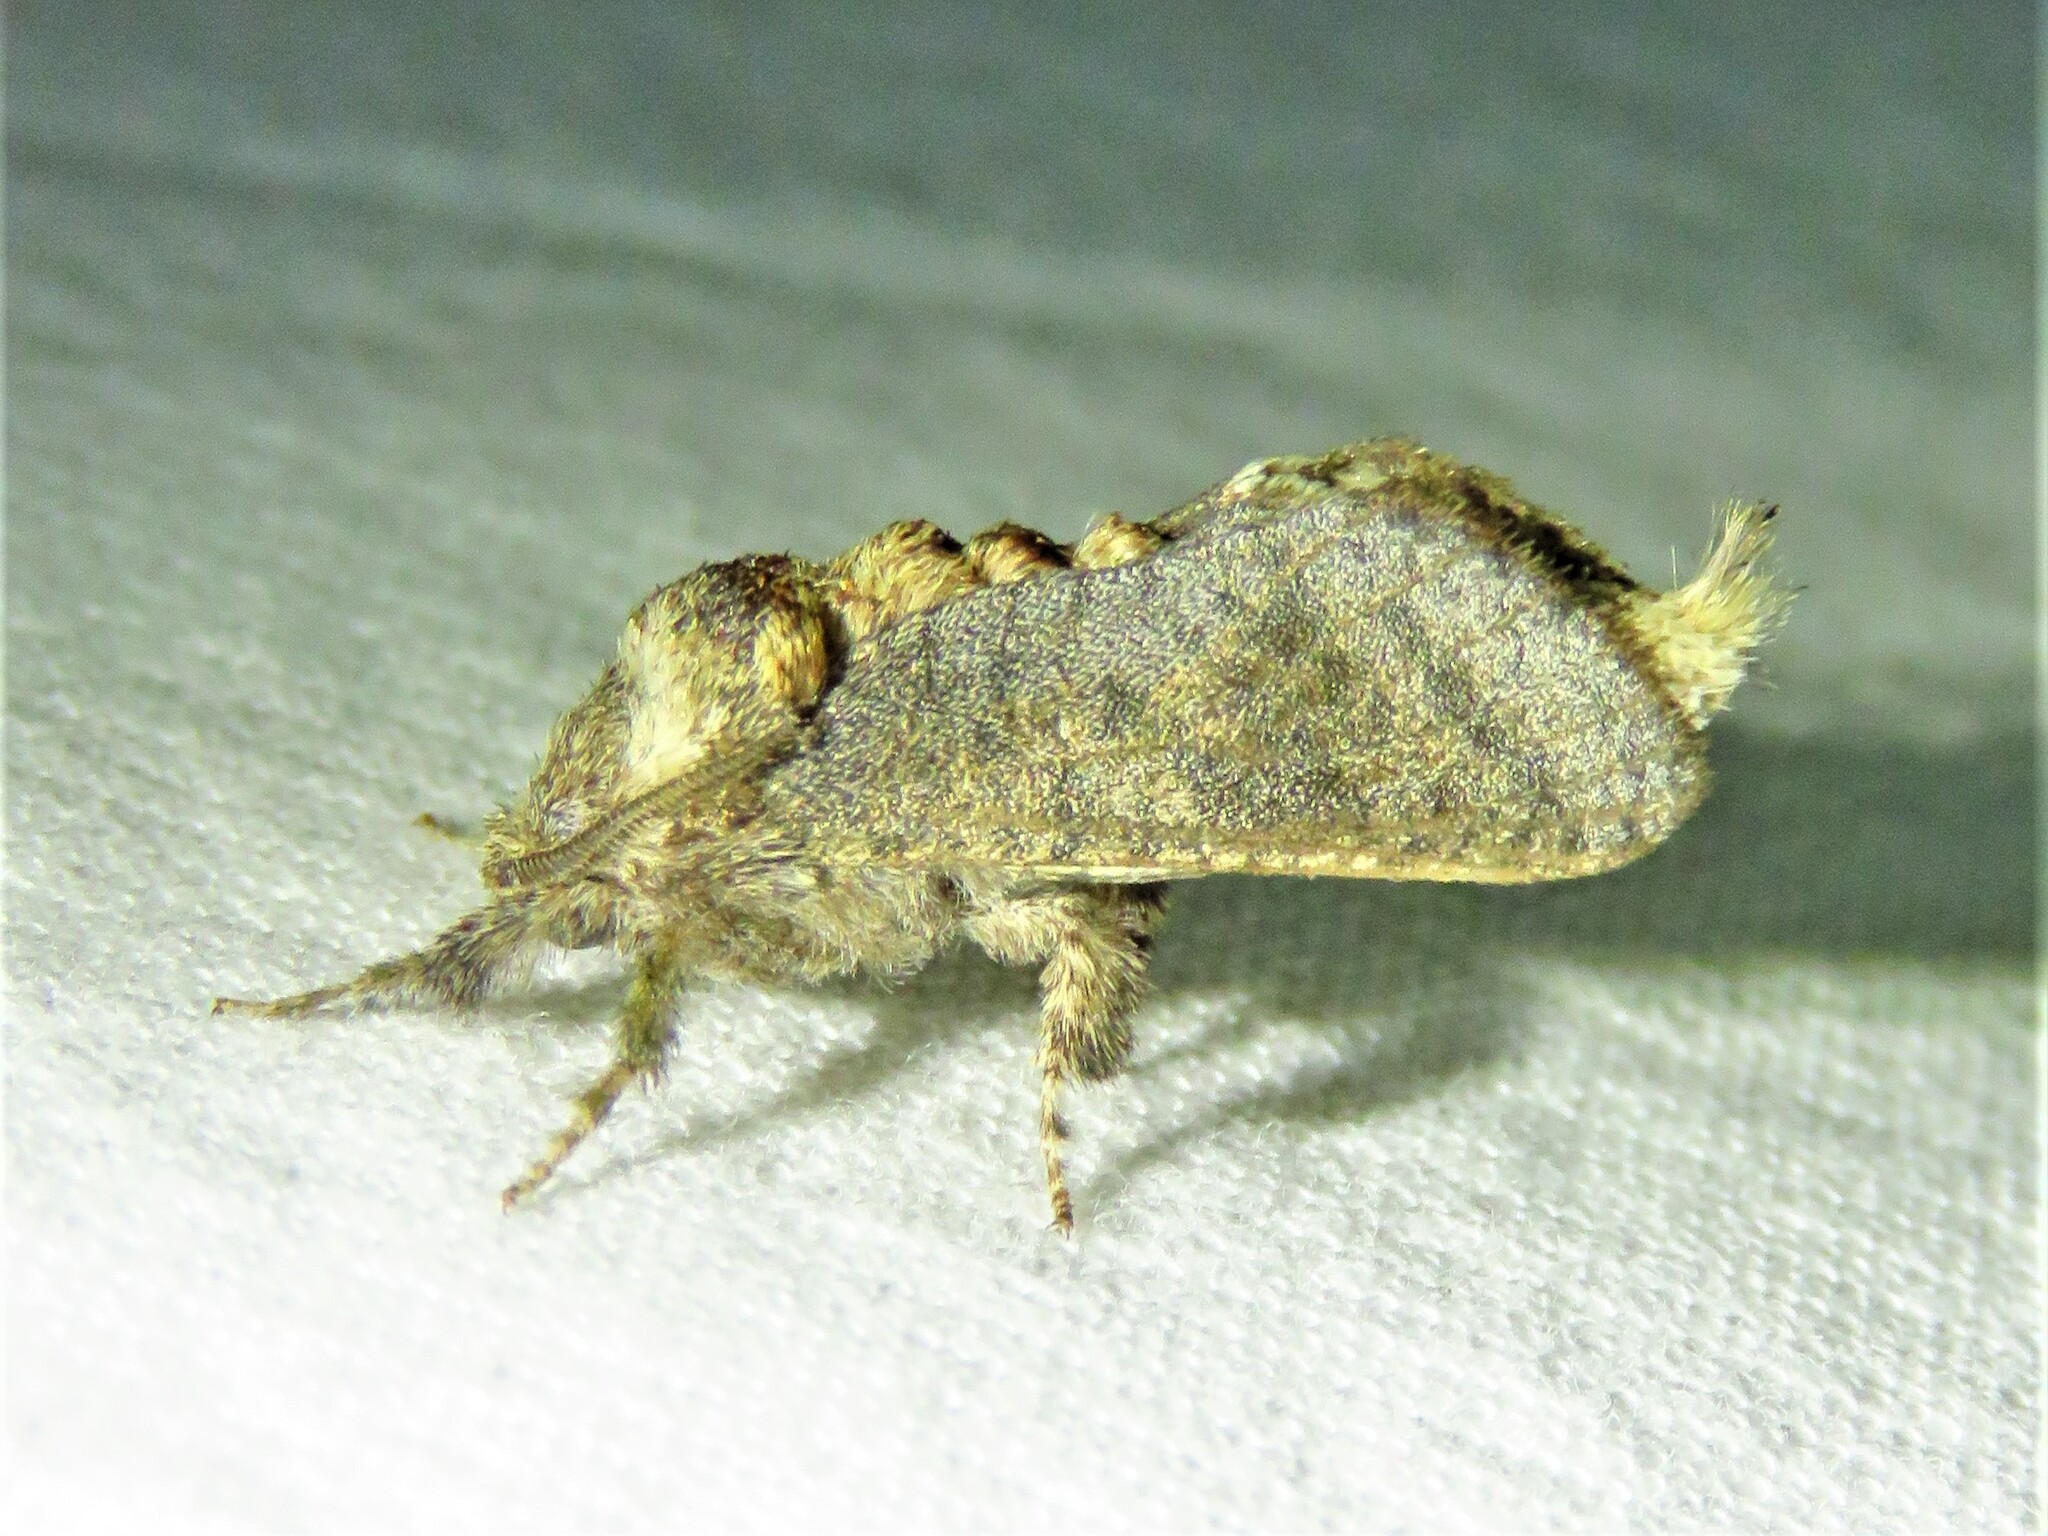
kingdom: Animalia
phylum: Arthropoda
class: Insecta
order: Lepidoptera
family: Cossidae
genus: Givira
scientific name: Givira arbeloides
